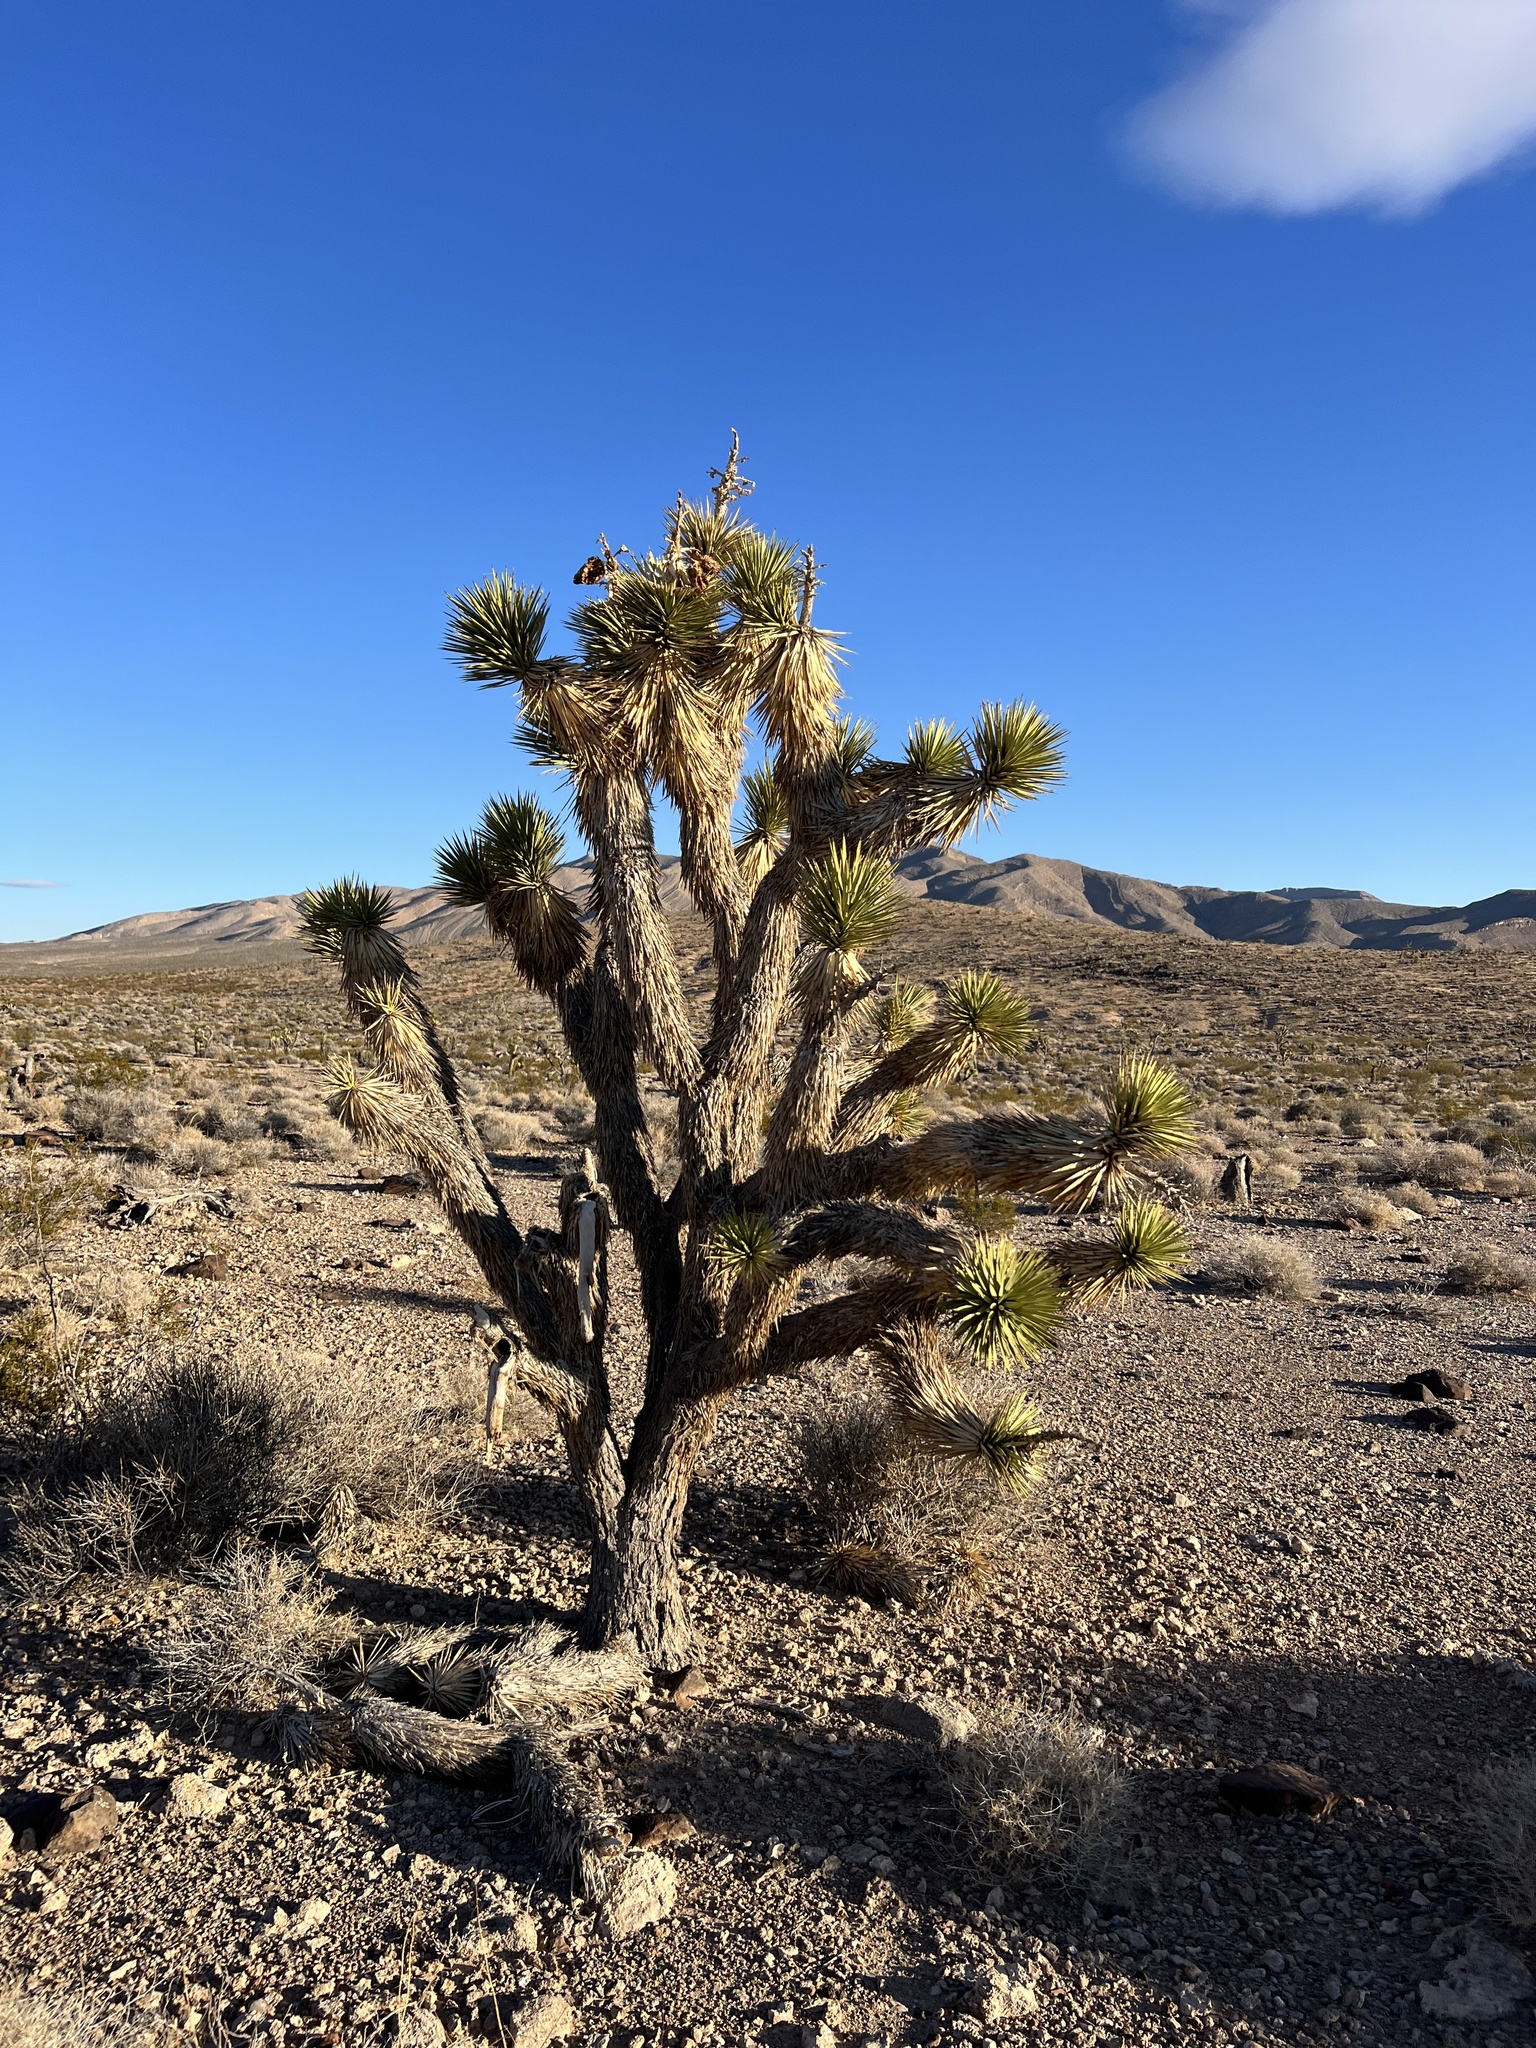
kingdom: Plantae
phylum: Tracheophyta
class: Liliopsida
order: Asparagales
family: Asparagaceae
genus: Yucca
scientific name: Yucca brevifolia
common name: Joshua tree
